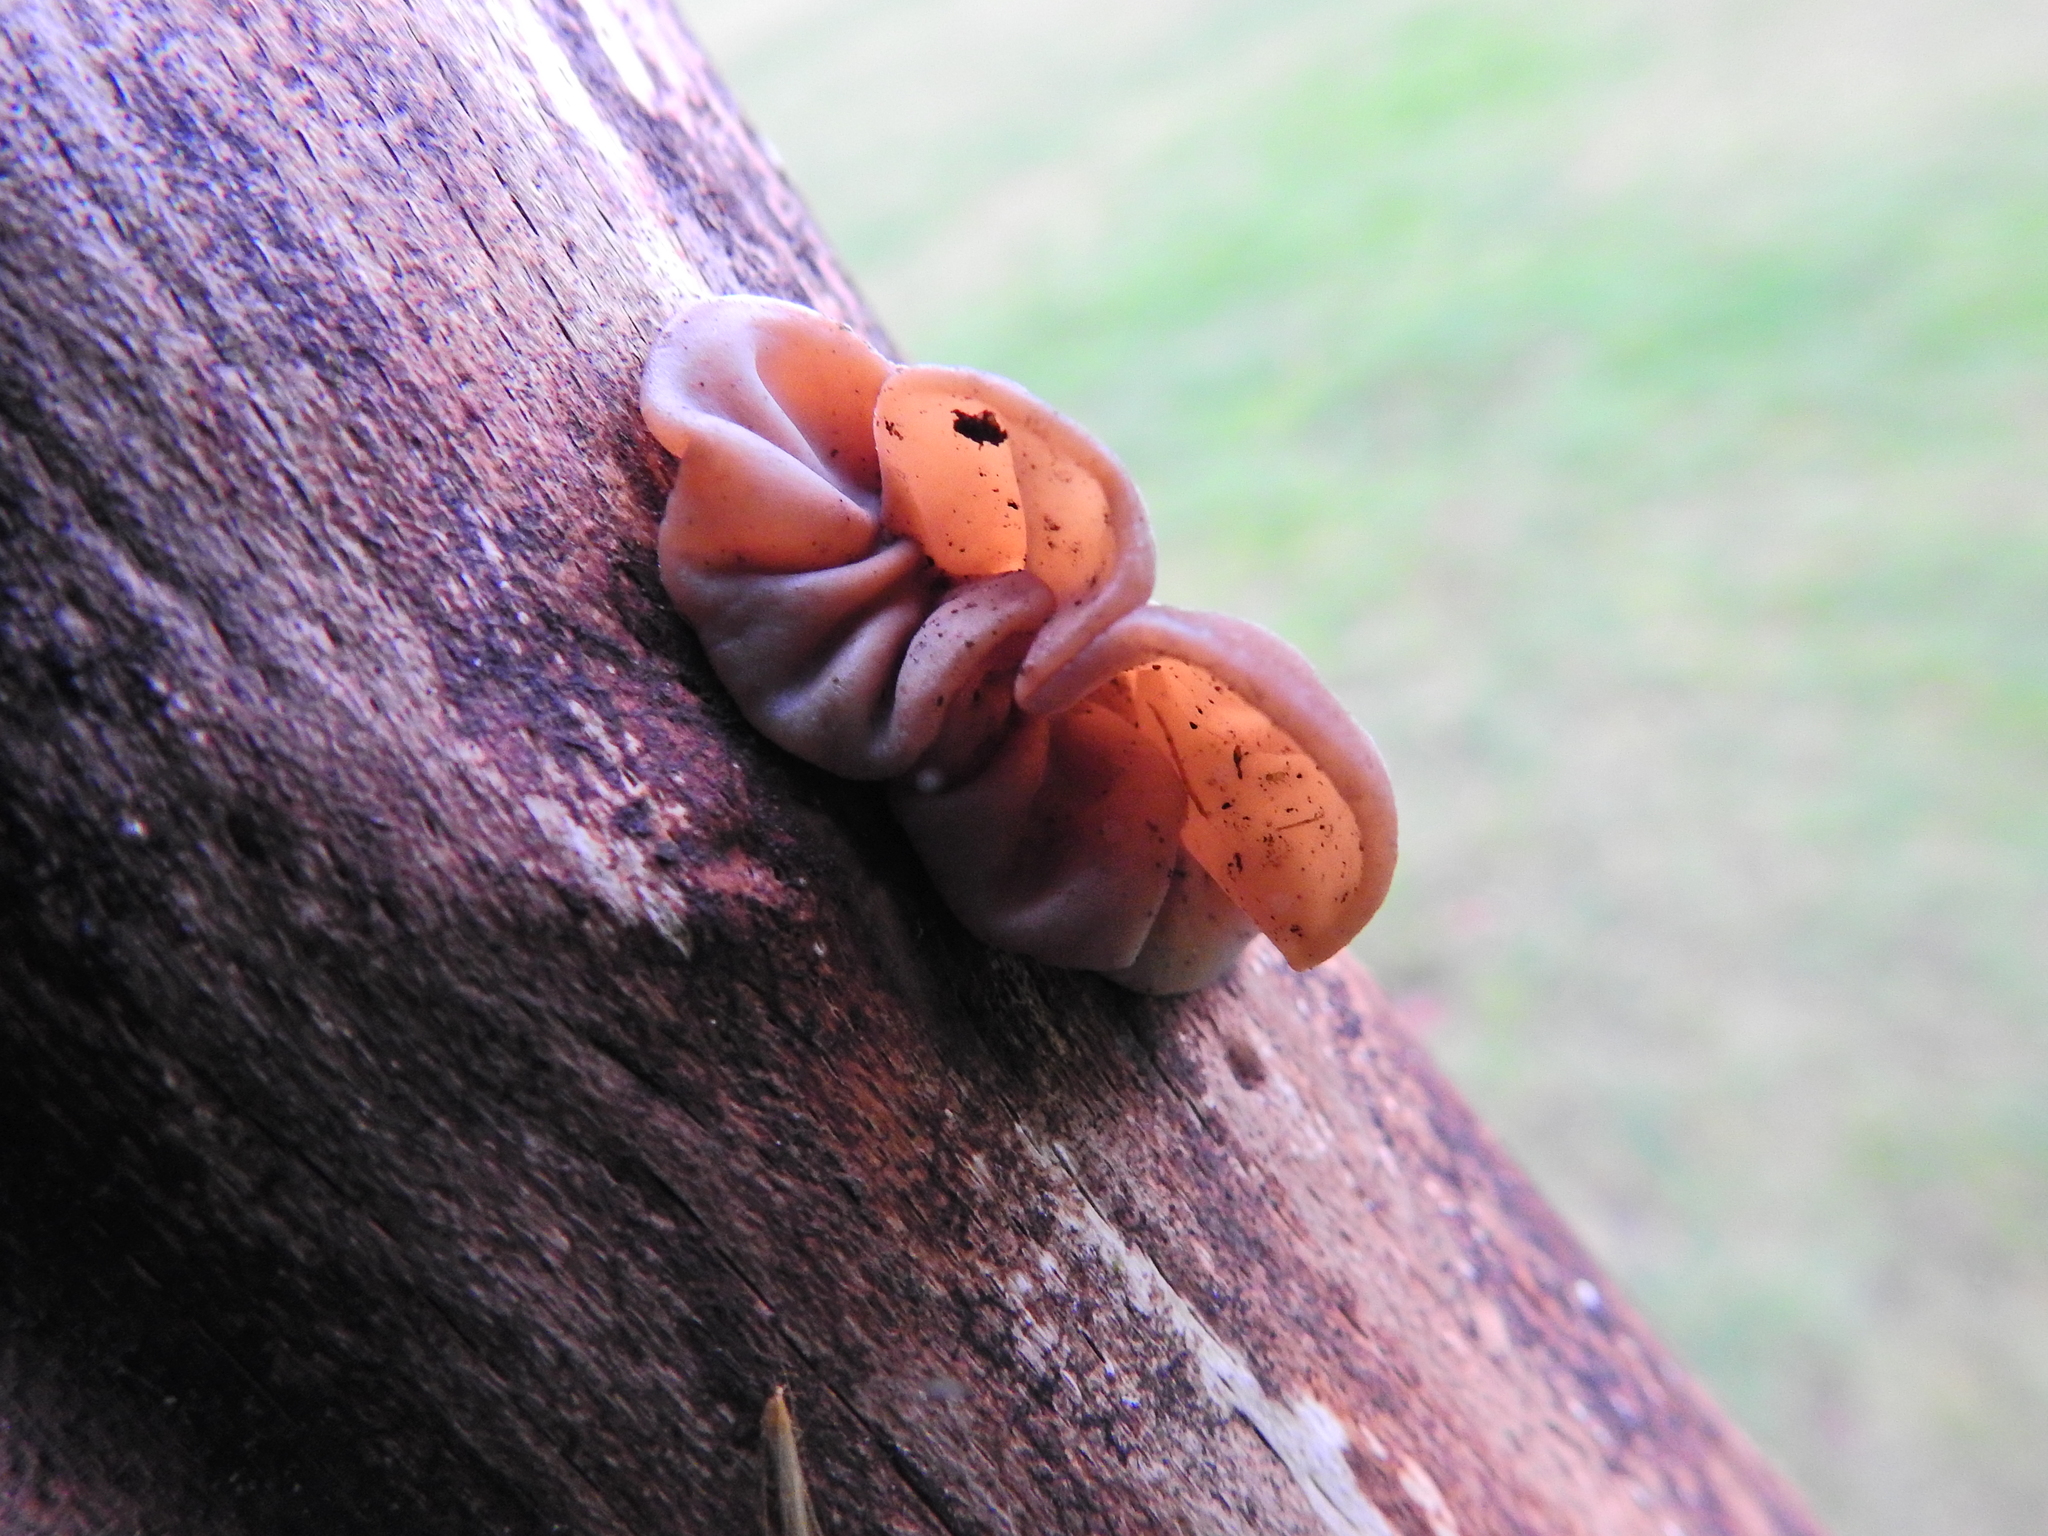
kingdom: Fungi
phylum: Basidiomycota
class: Agaricomycetes
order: Auriculariales
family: Auriculariaceae
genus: Auricularia
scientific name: Auricularia auricula-judae
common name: Jelly ear
